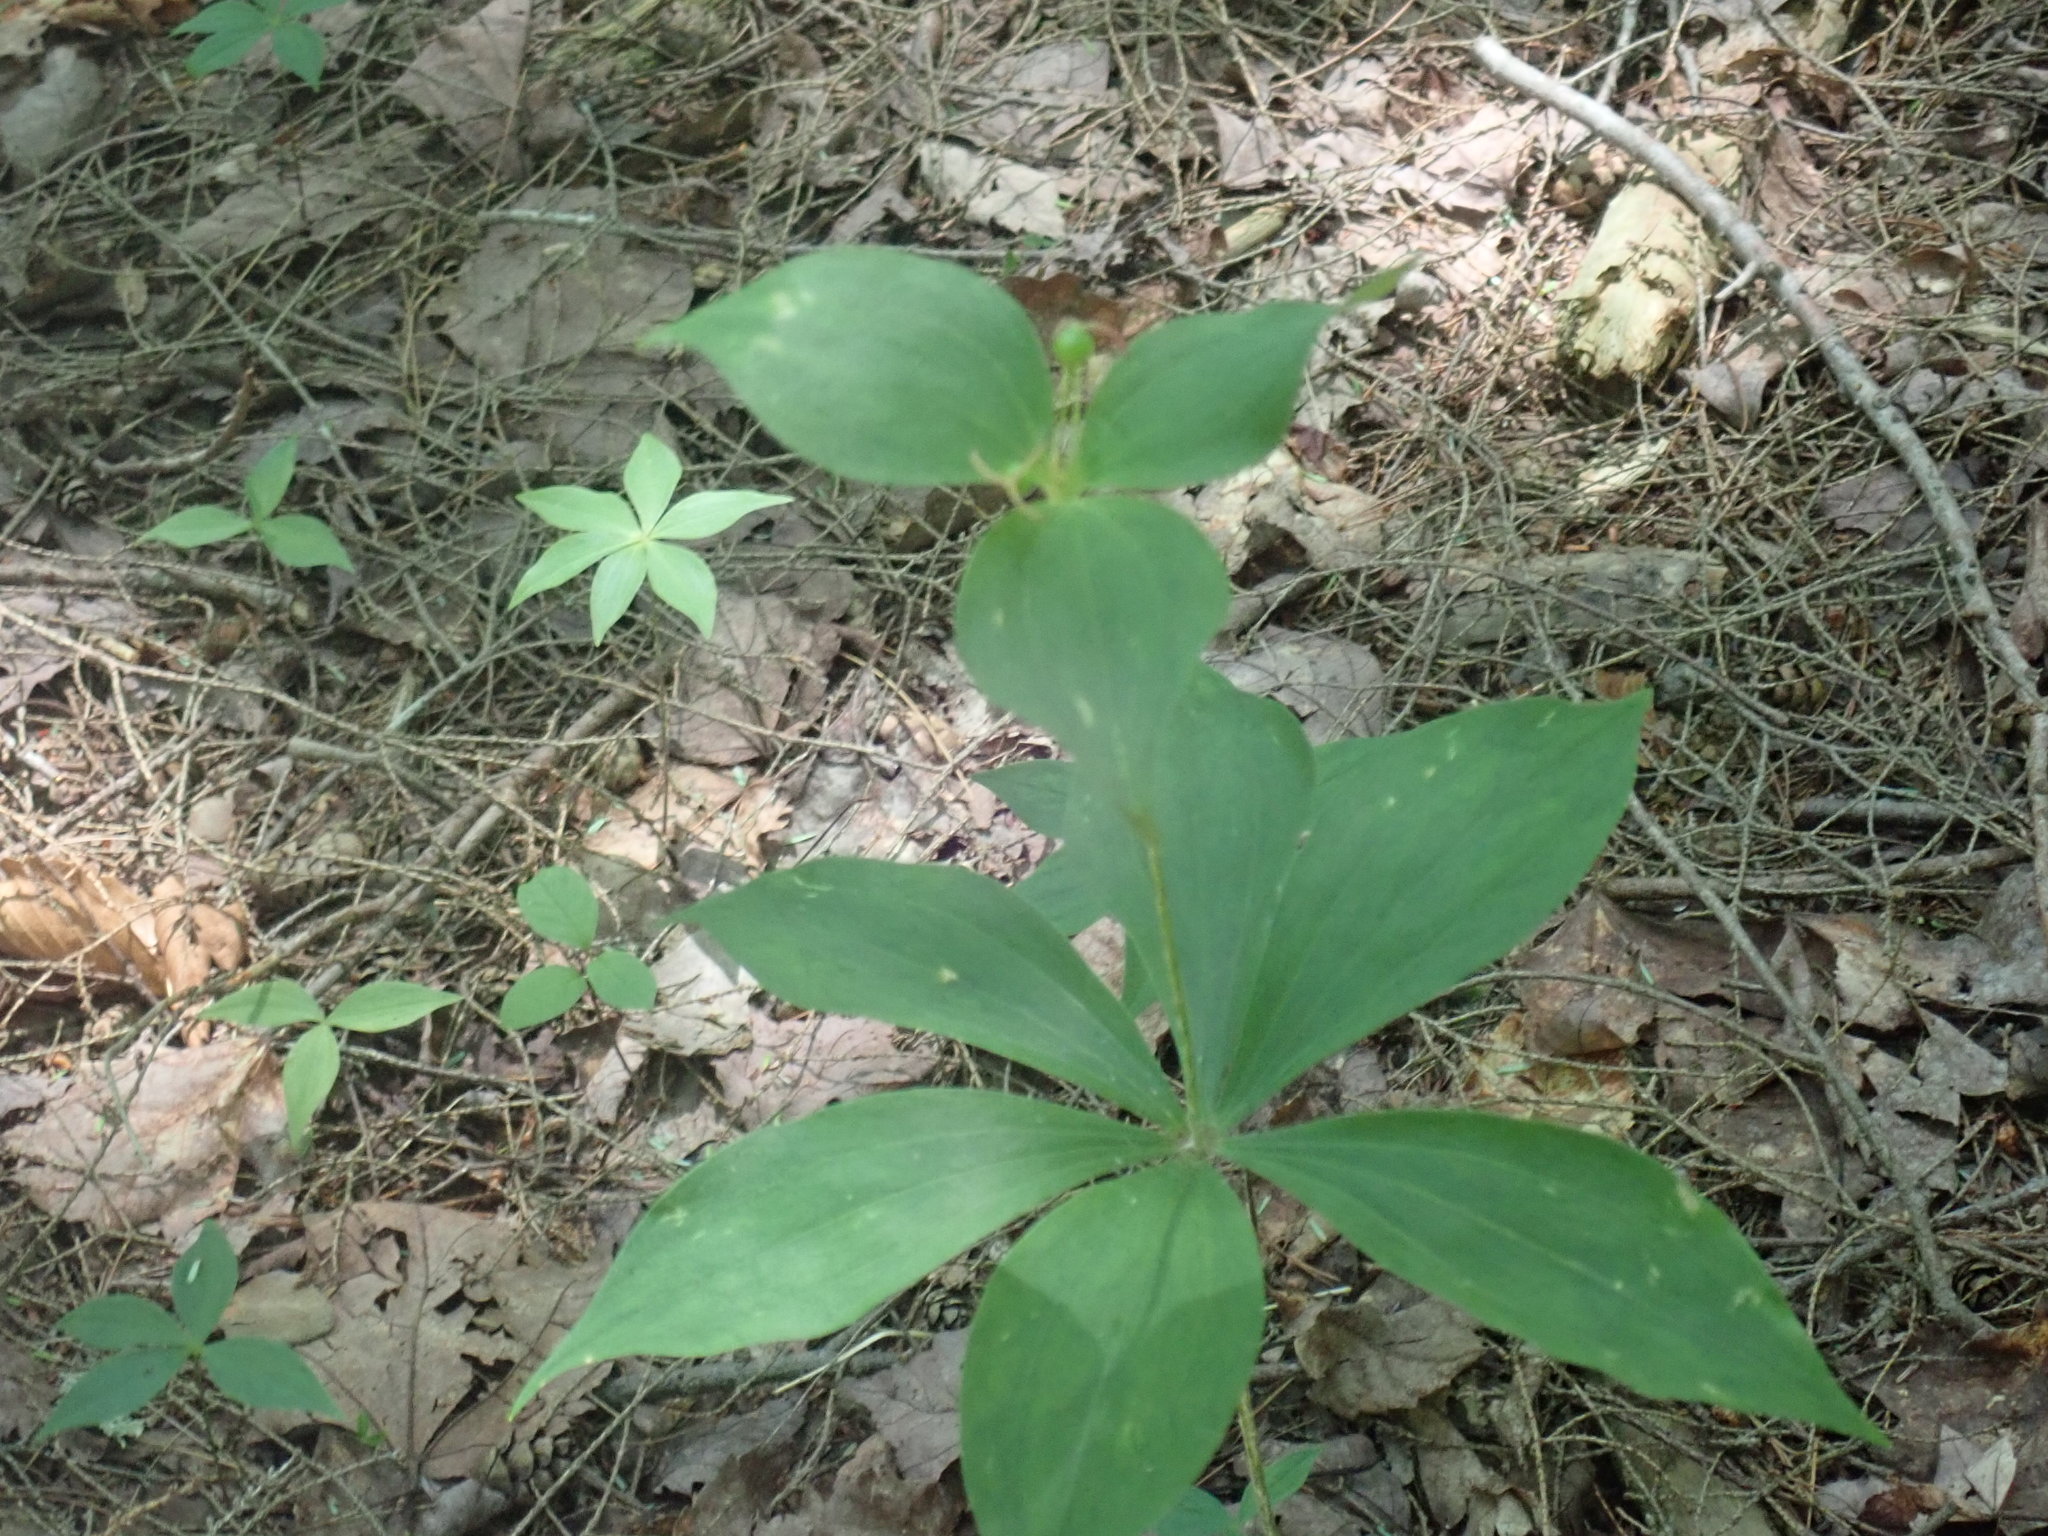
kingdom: Plantae
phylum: Tracheophyta
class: Liliopsida
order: Liliales
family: Liliaceae
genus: Medeola
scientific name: Medeola virginiana
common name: Indian cucumber-root
